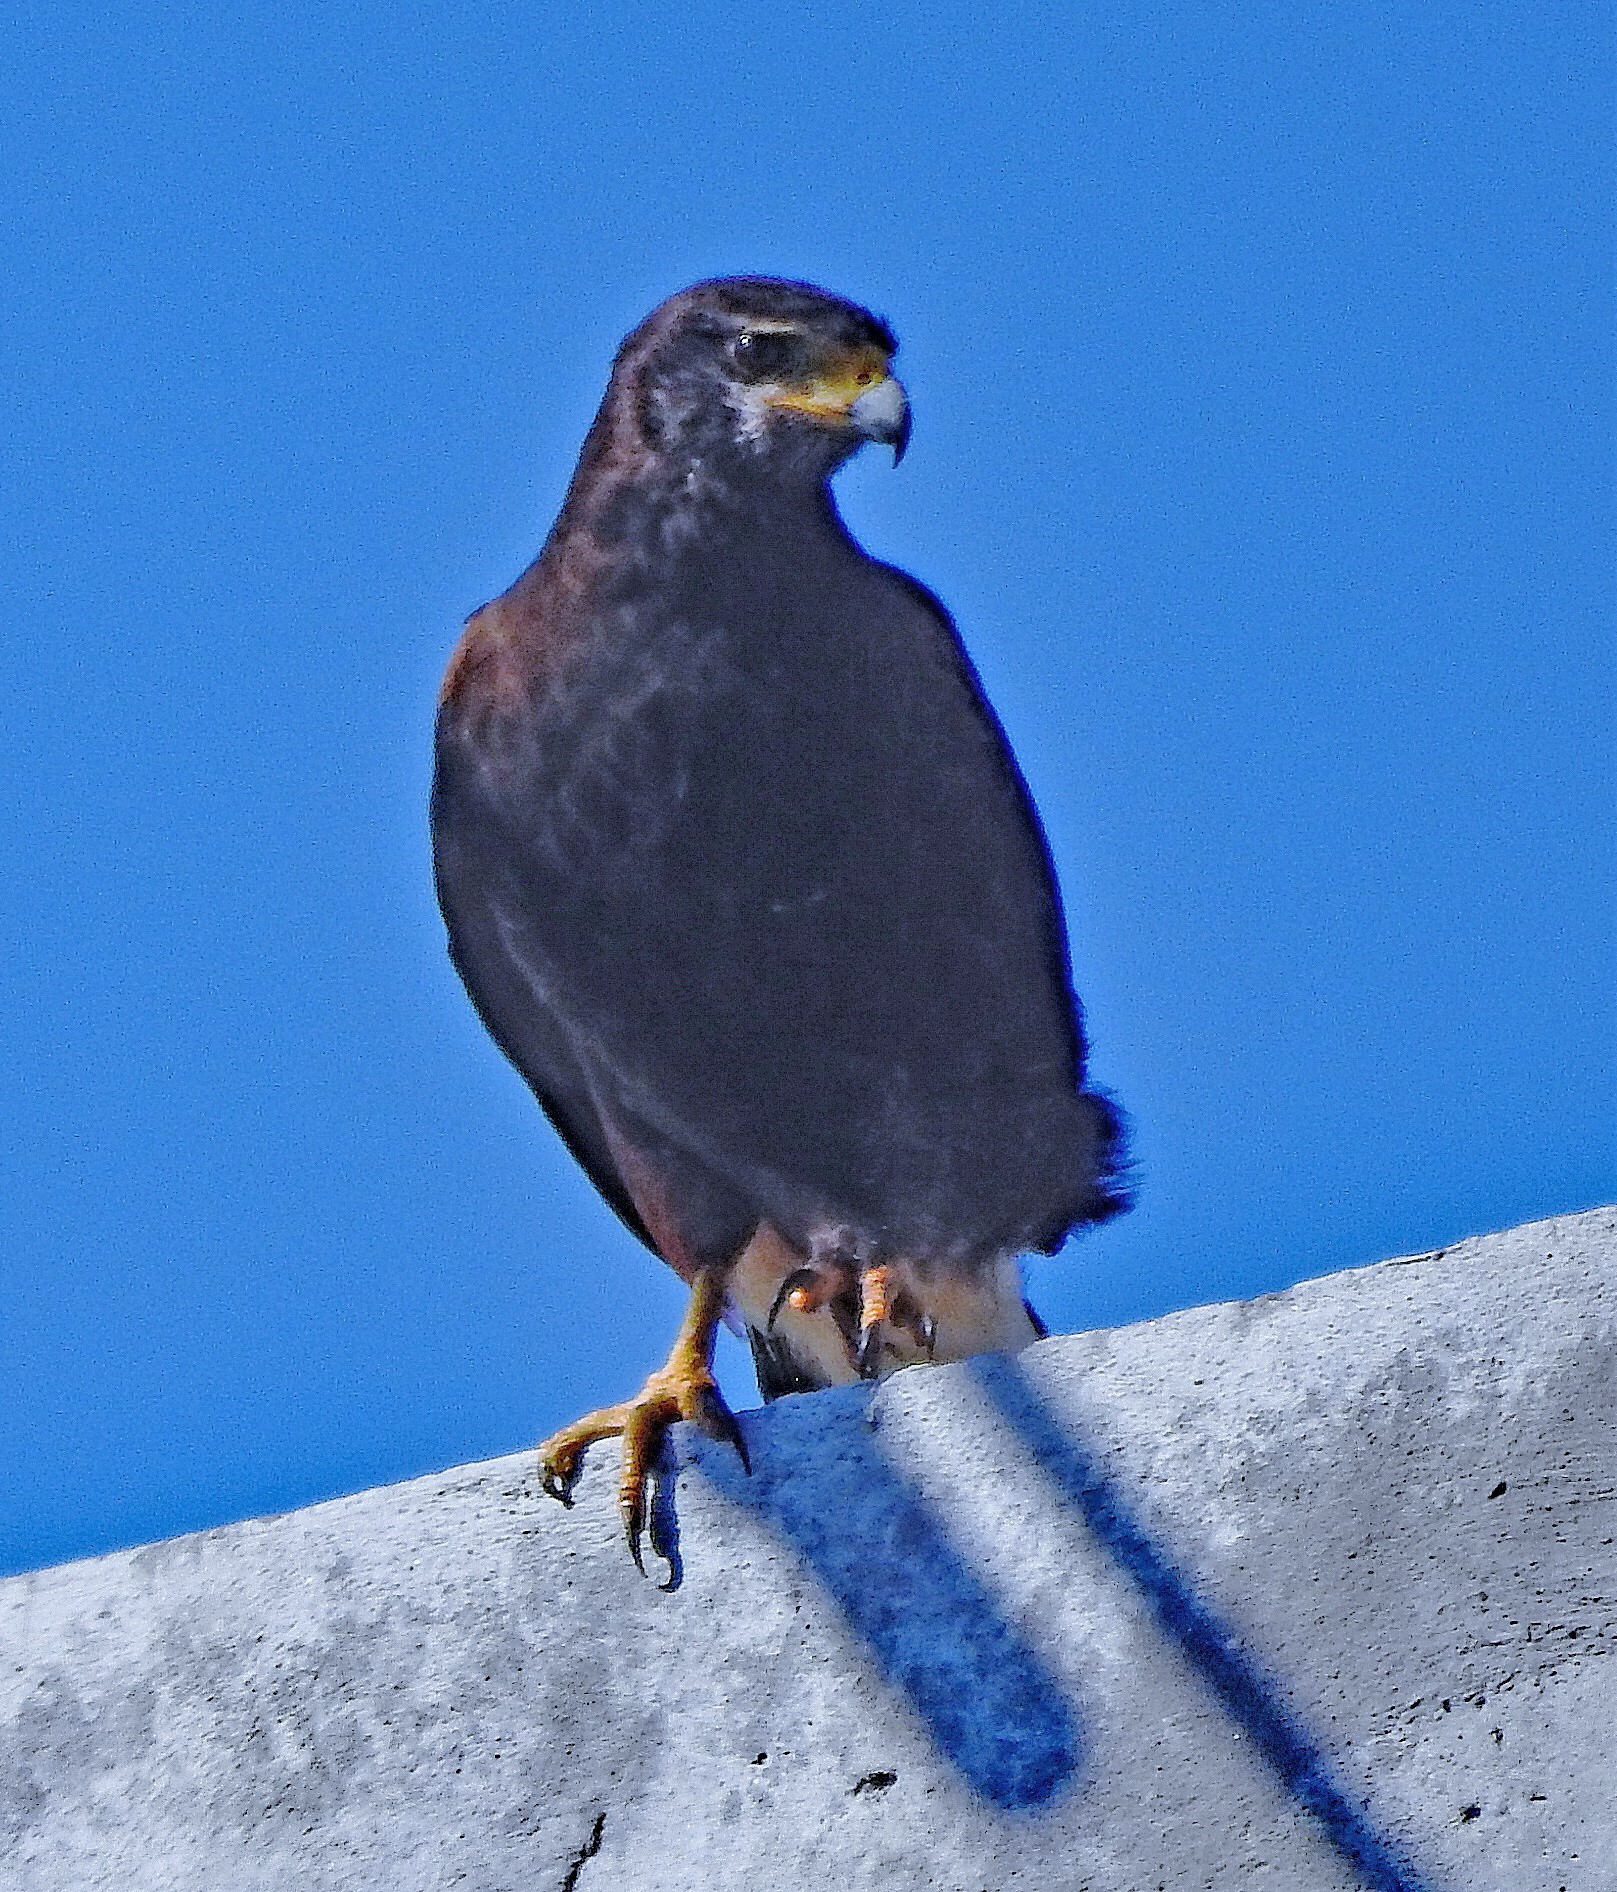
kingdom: Animalia
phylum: Chordata
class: Aves
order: Accipitriformes
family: Accipitridae
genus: Parabuteo
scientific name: Parabuteo unicinctus
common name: Harris's hawk
